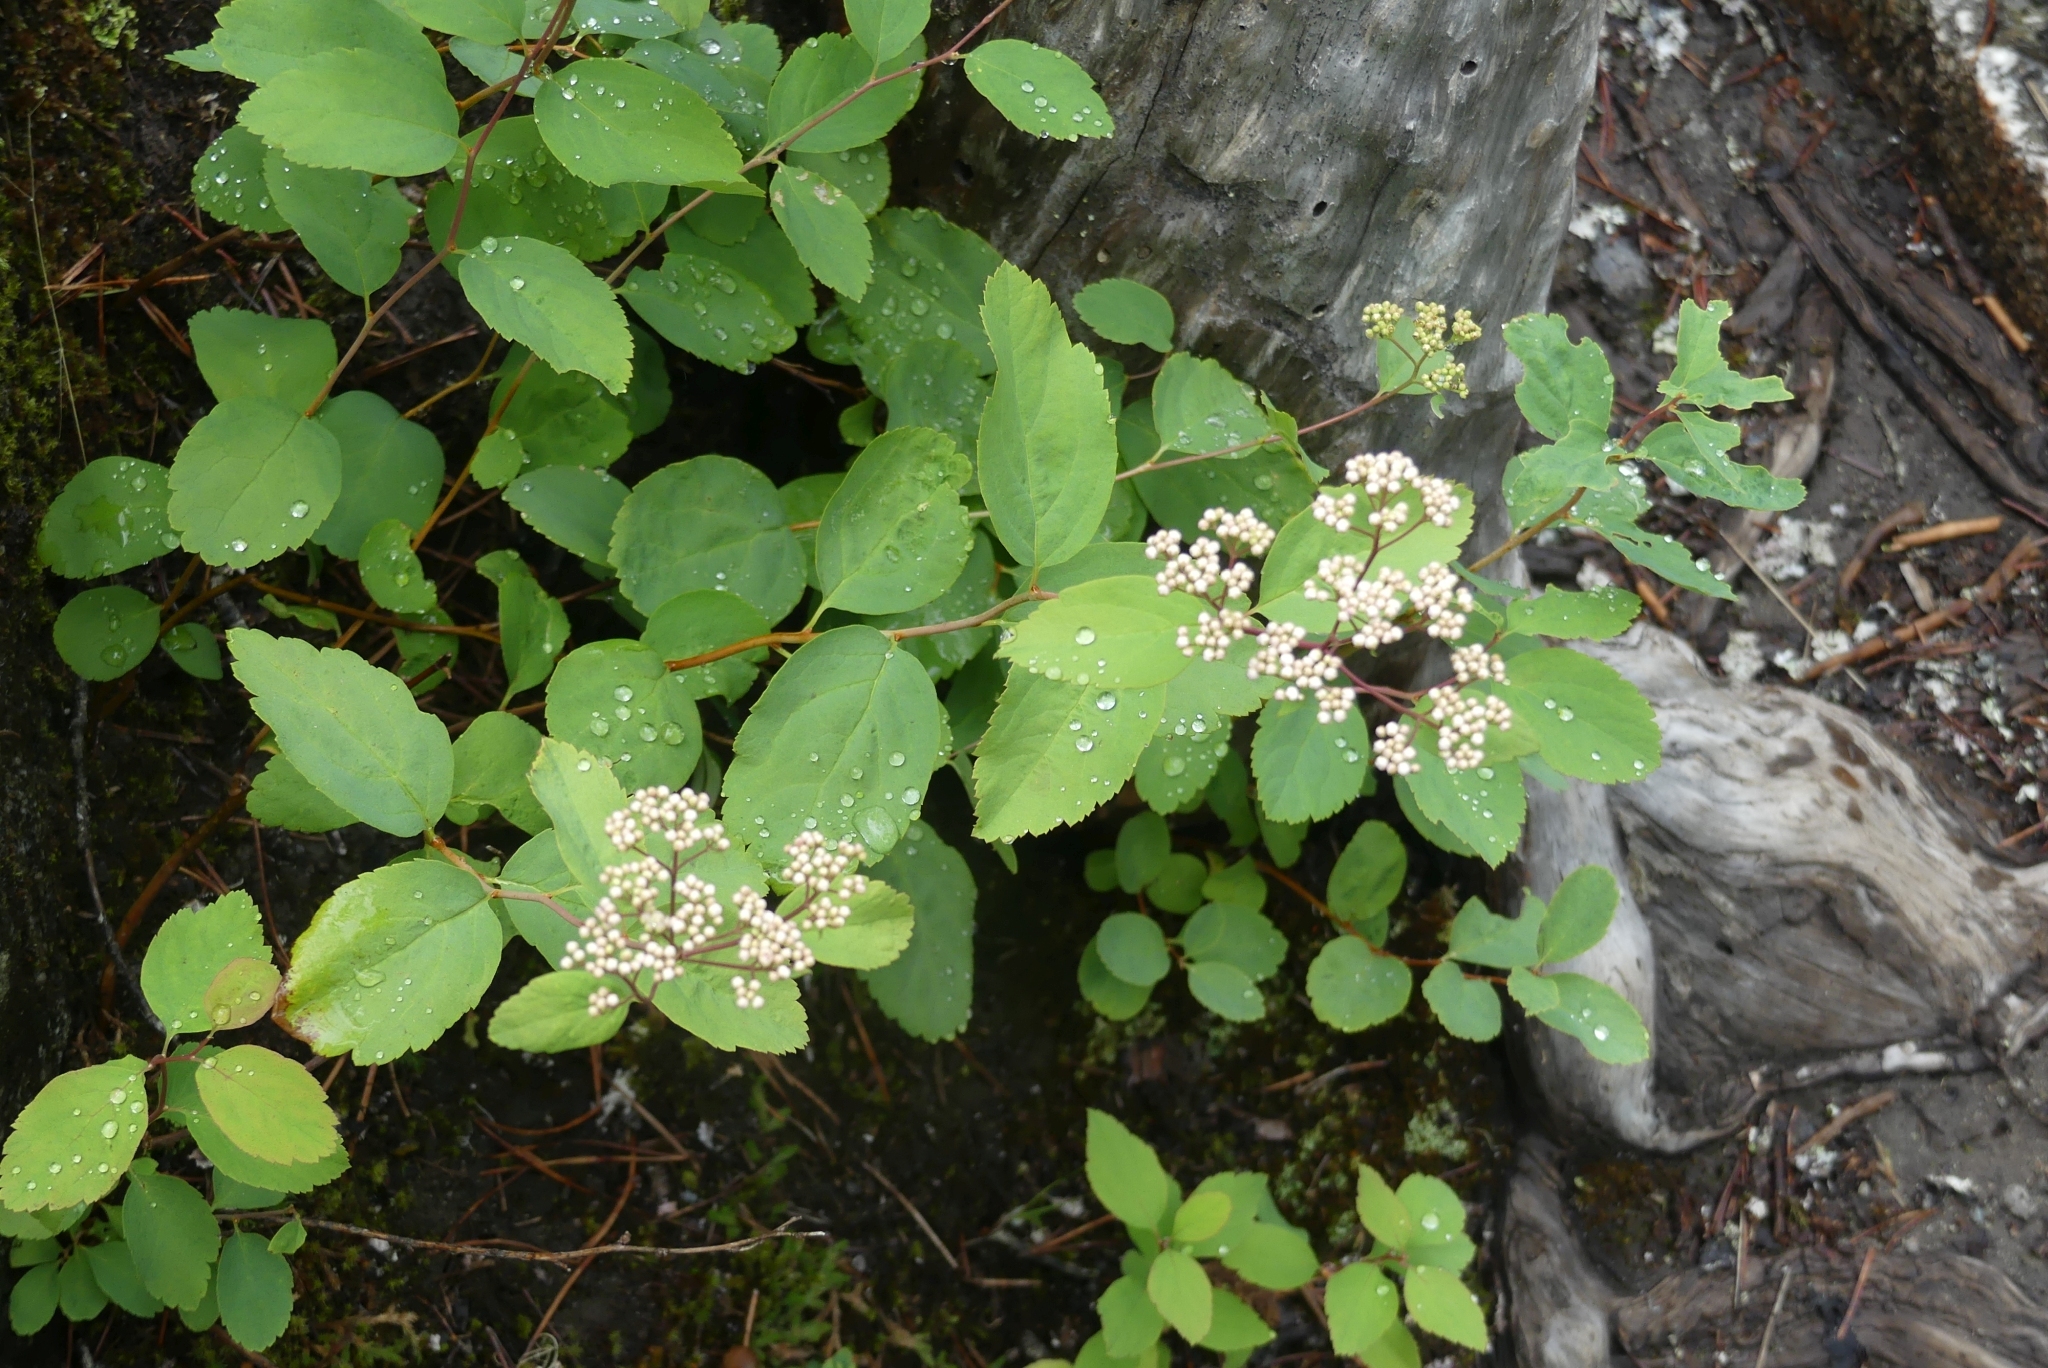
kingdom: Plantae
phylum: Tracheophyta
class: Magnoliopsida
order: Rosales
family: Rosaceae
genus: Spiraea
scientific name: Spiraea lucida
